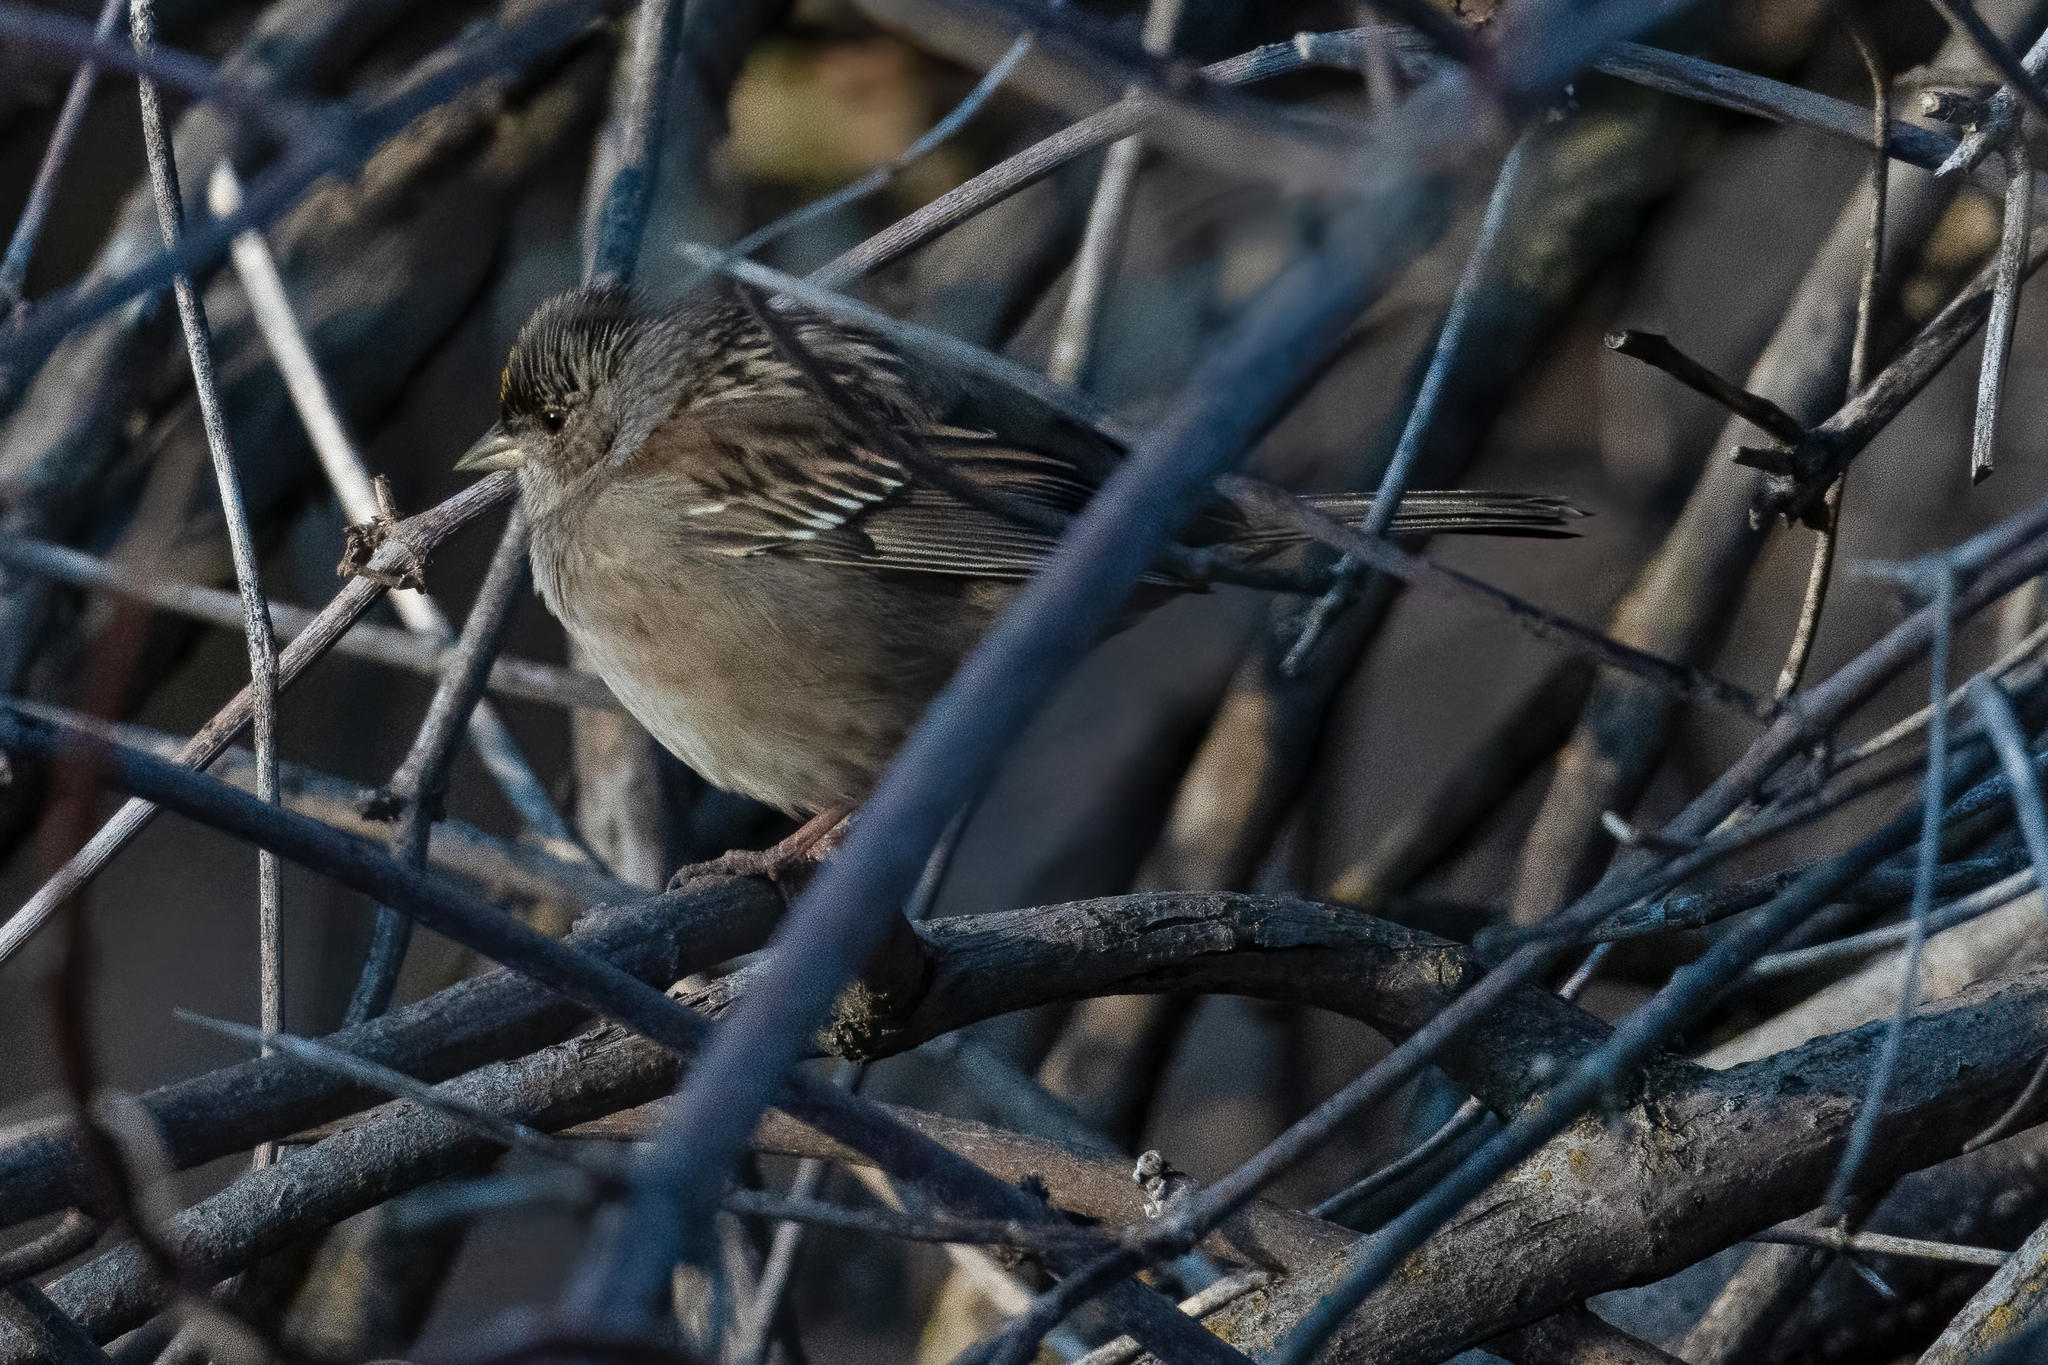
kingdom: Animalia
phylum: Chordata
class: Aves
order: Passeriformes
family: Passerellidae
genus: Zonotrichia
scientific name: Zonotrichia atricapilla
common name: Golden-crowned sparrow
